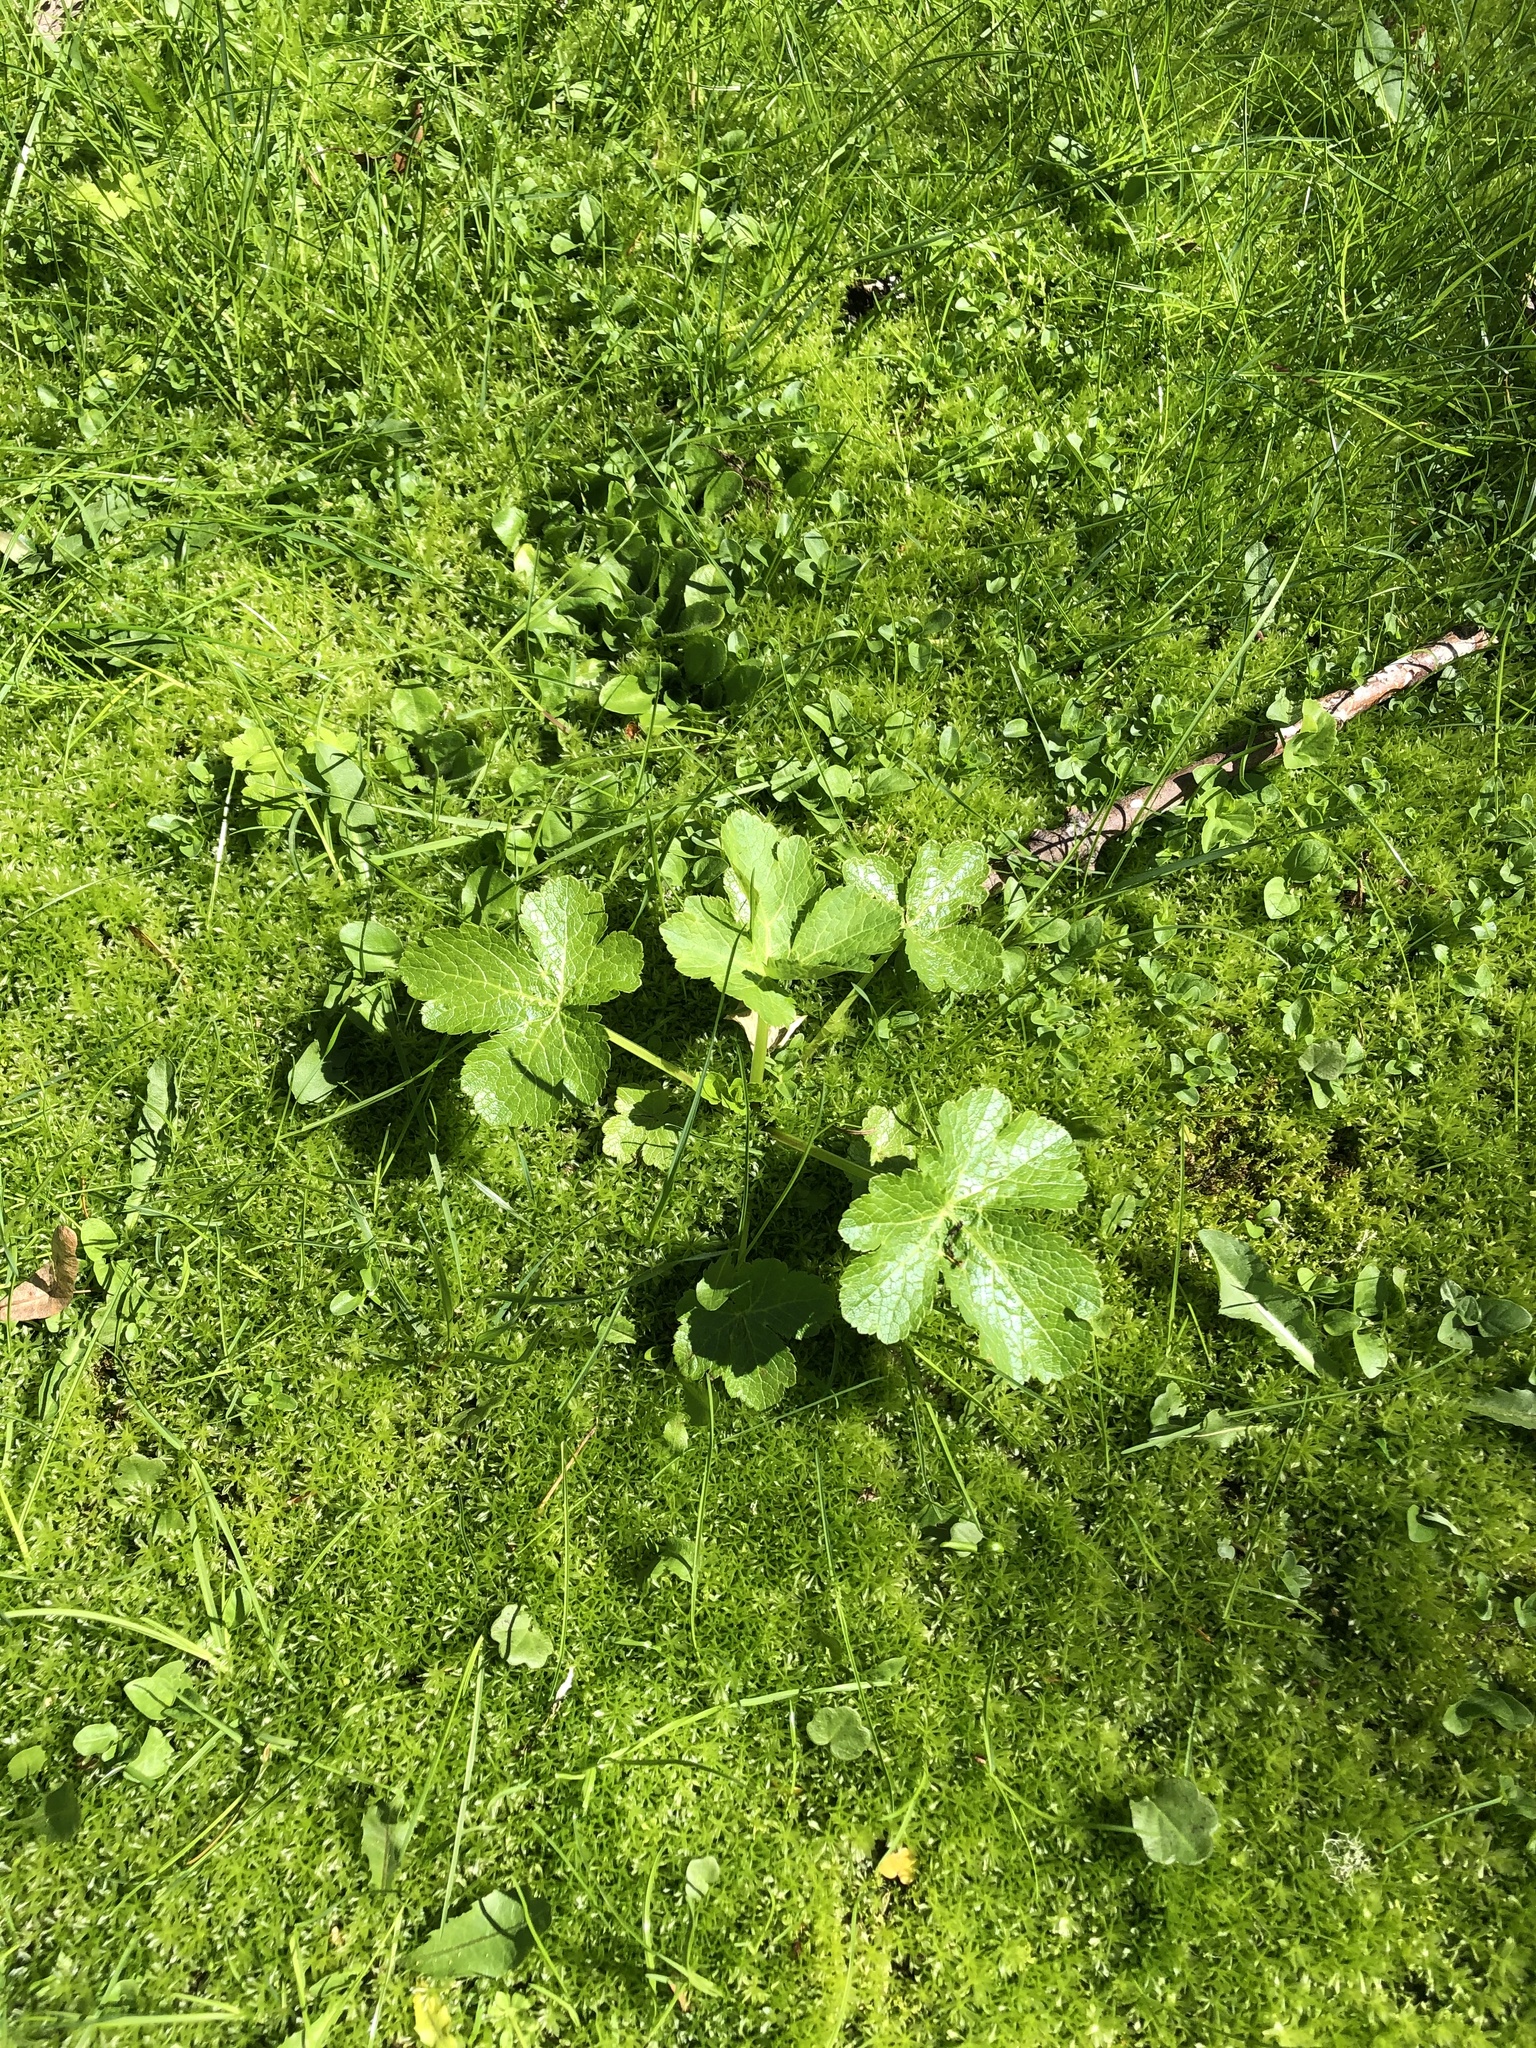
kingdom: Plantae
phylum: Tracheophyta
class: Magnoliopsida
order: Apiales
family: Apiaceae
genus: Sanicula
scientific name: Sanicula crassicaulis
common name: Western snakeroot
